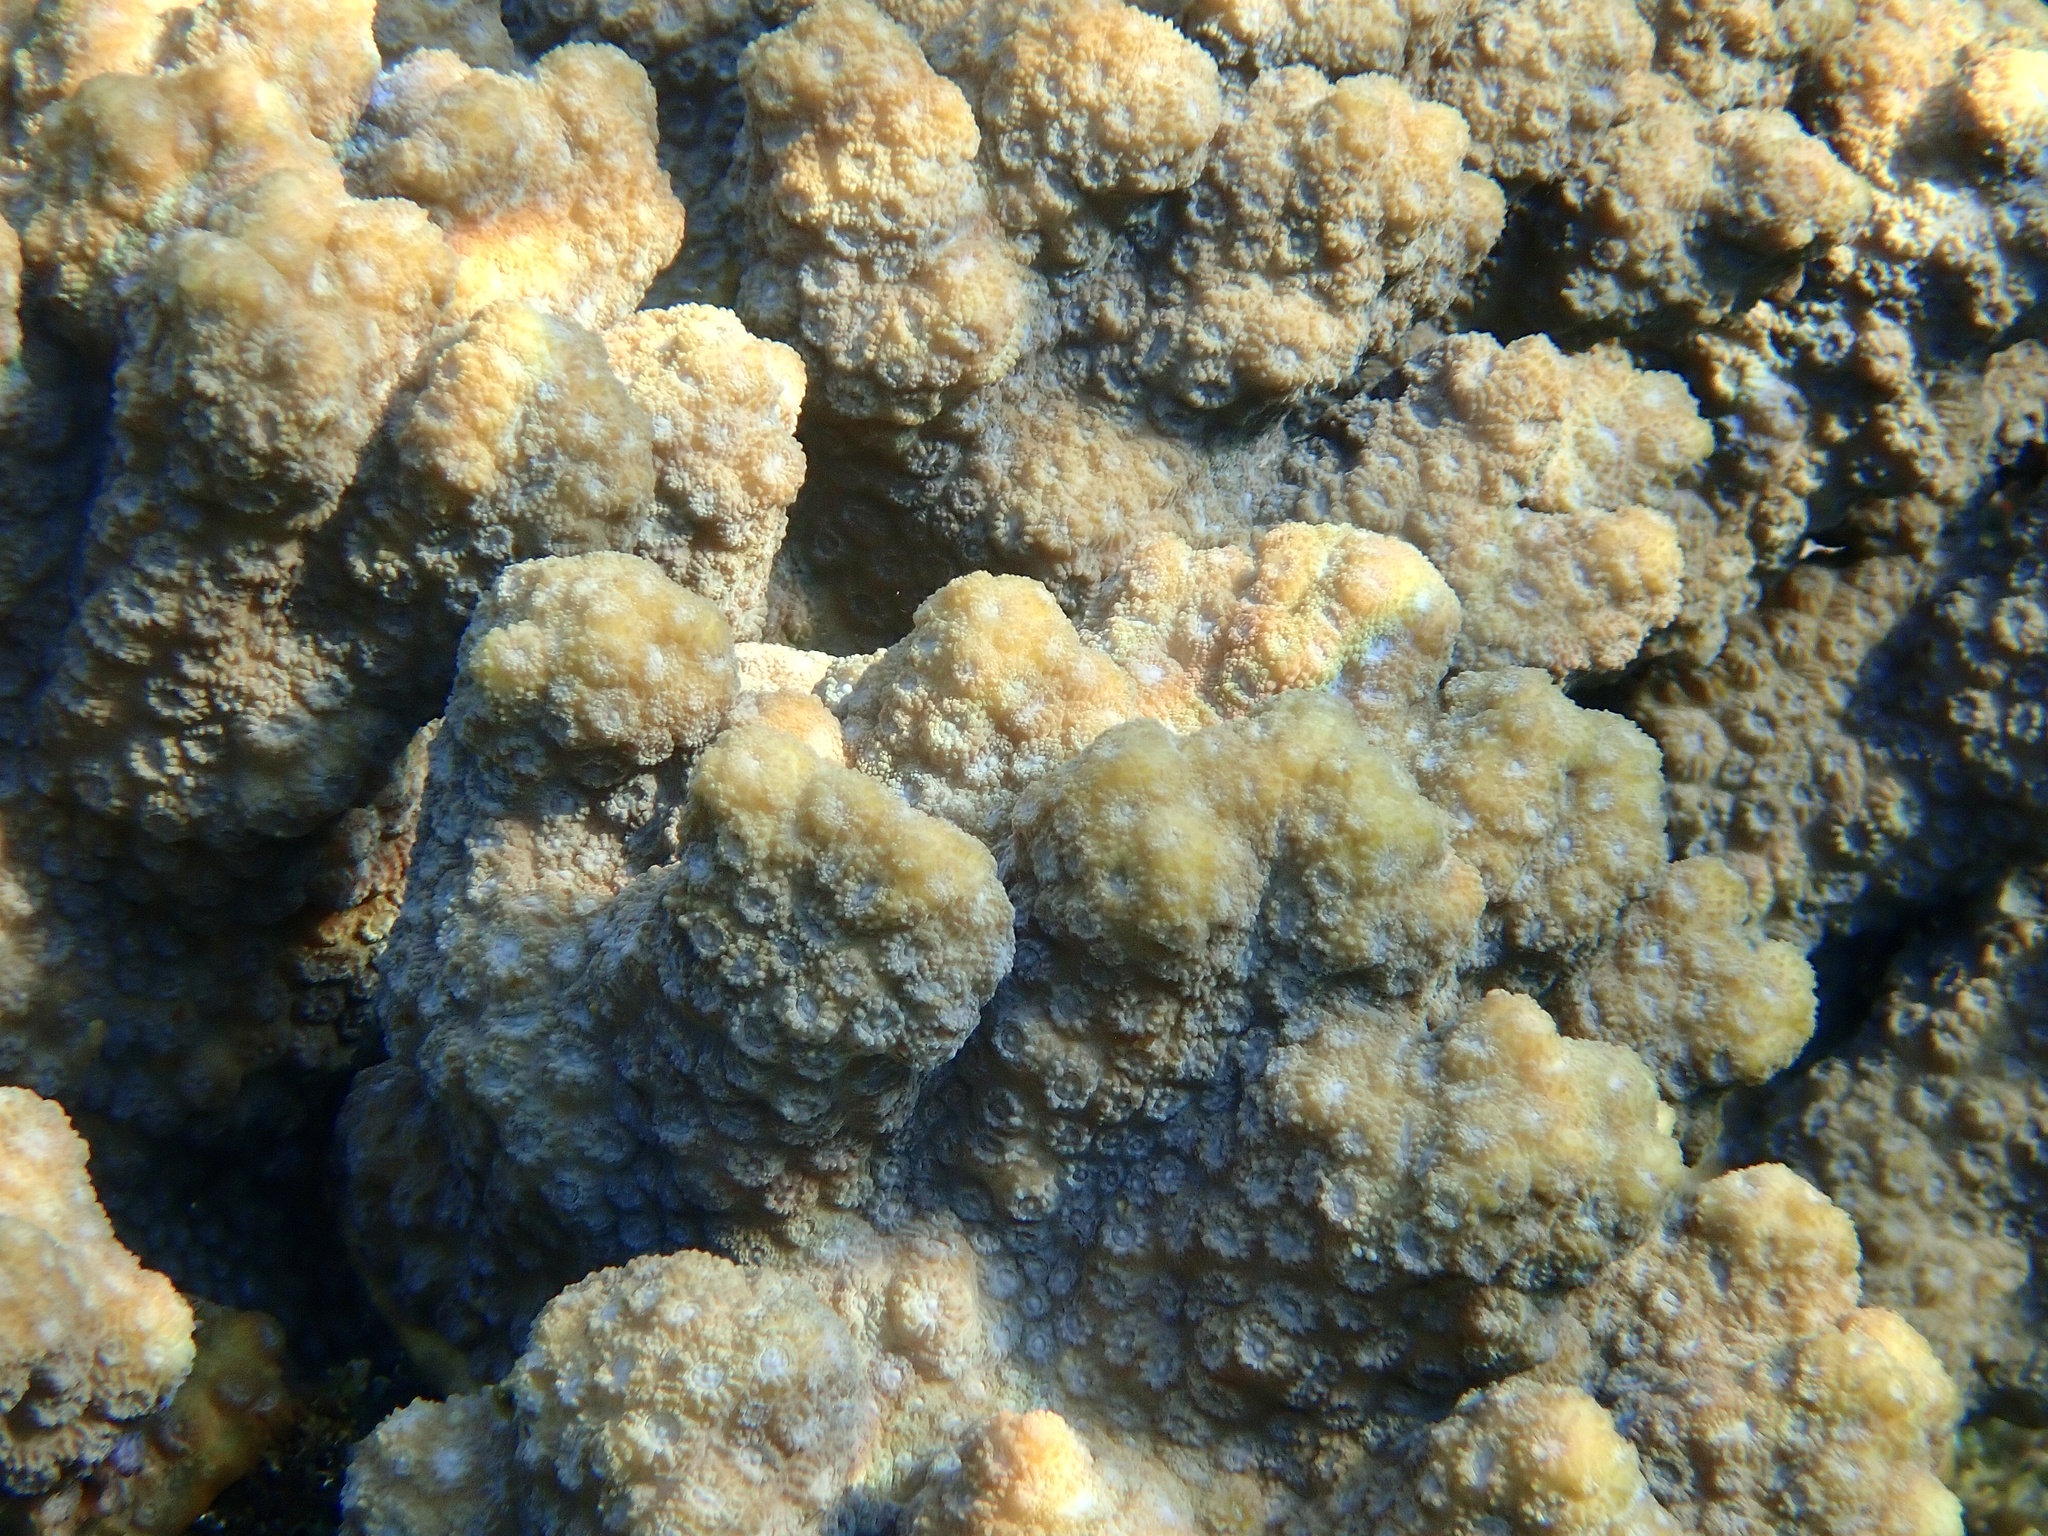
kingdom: Animalia
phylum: Cnidaria
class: Anthozoa
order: Scleractinia
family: Merulinidae
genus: Echinopora
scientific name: Echinopora hirsutissima
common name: Hedgehog coral
